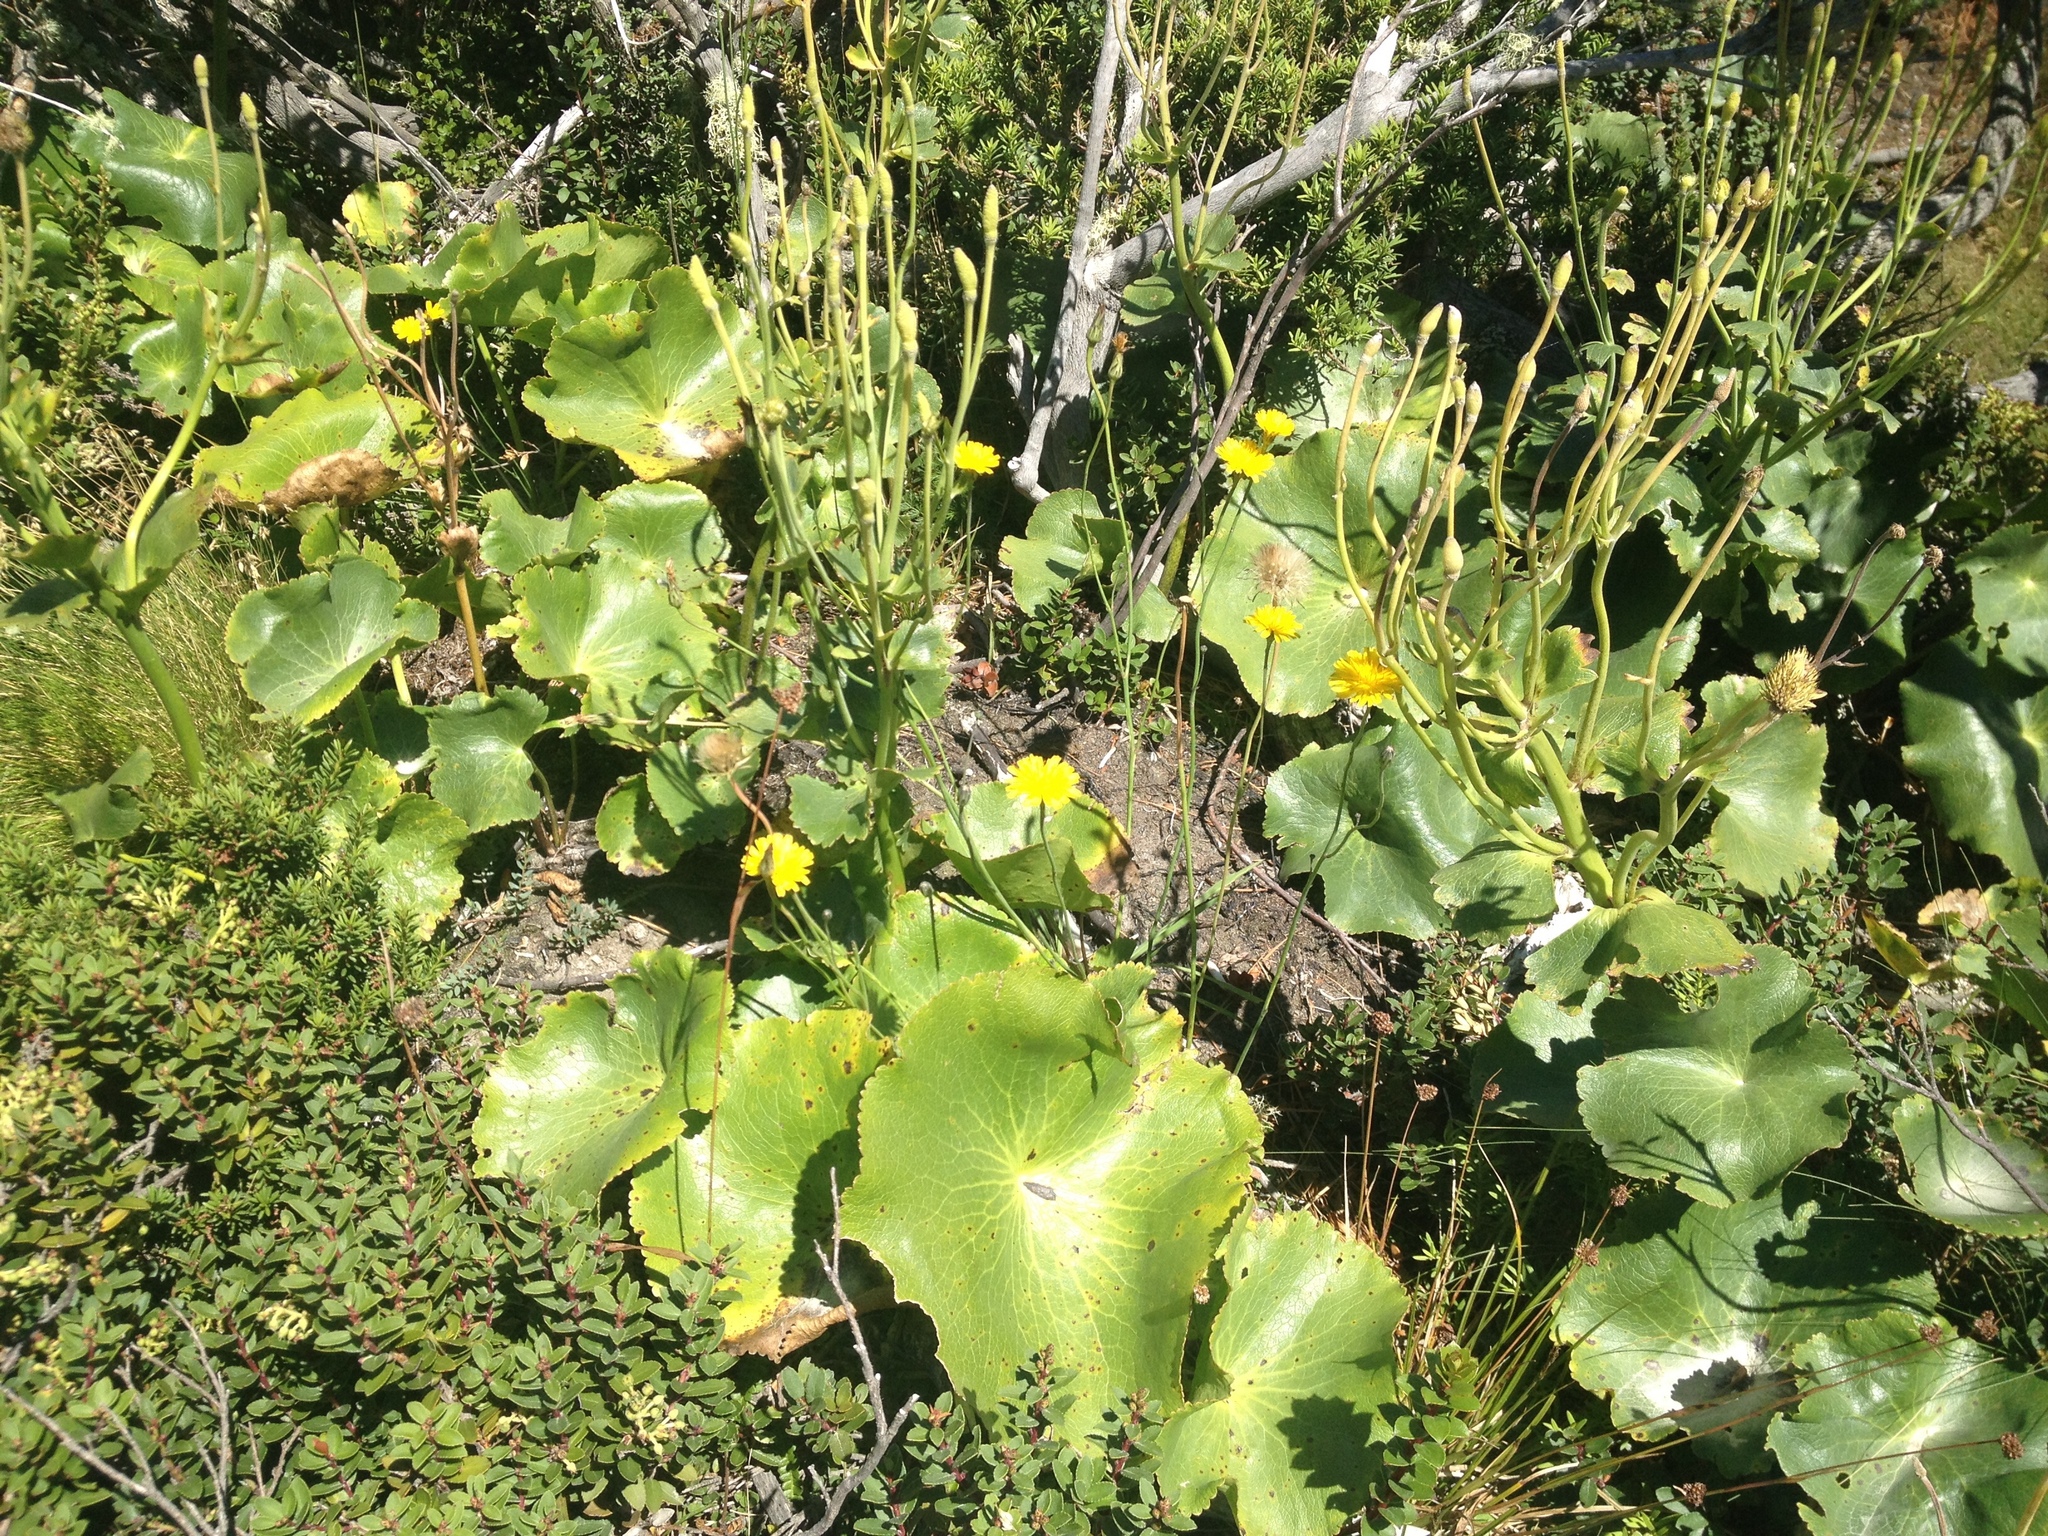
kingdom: Plantae
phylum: Tracheophyta
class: Magnoliopsida
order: Ranunculales
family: Ranunculaceae
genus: Ranunculus
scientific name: Ranunculus lyallii
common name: Mountain-lily
